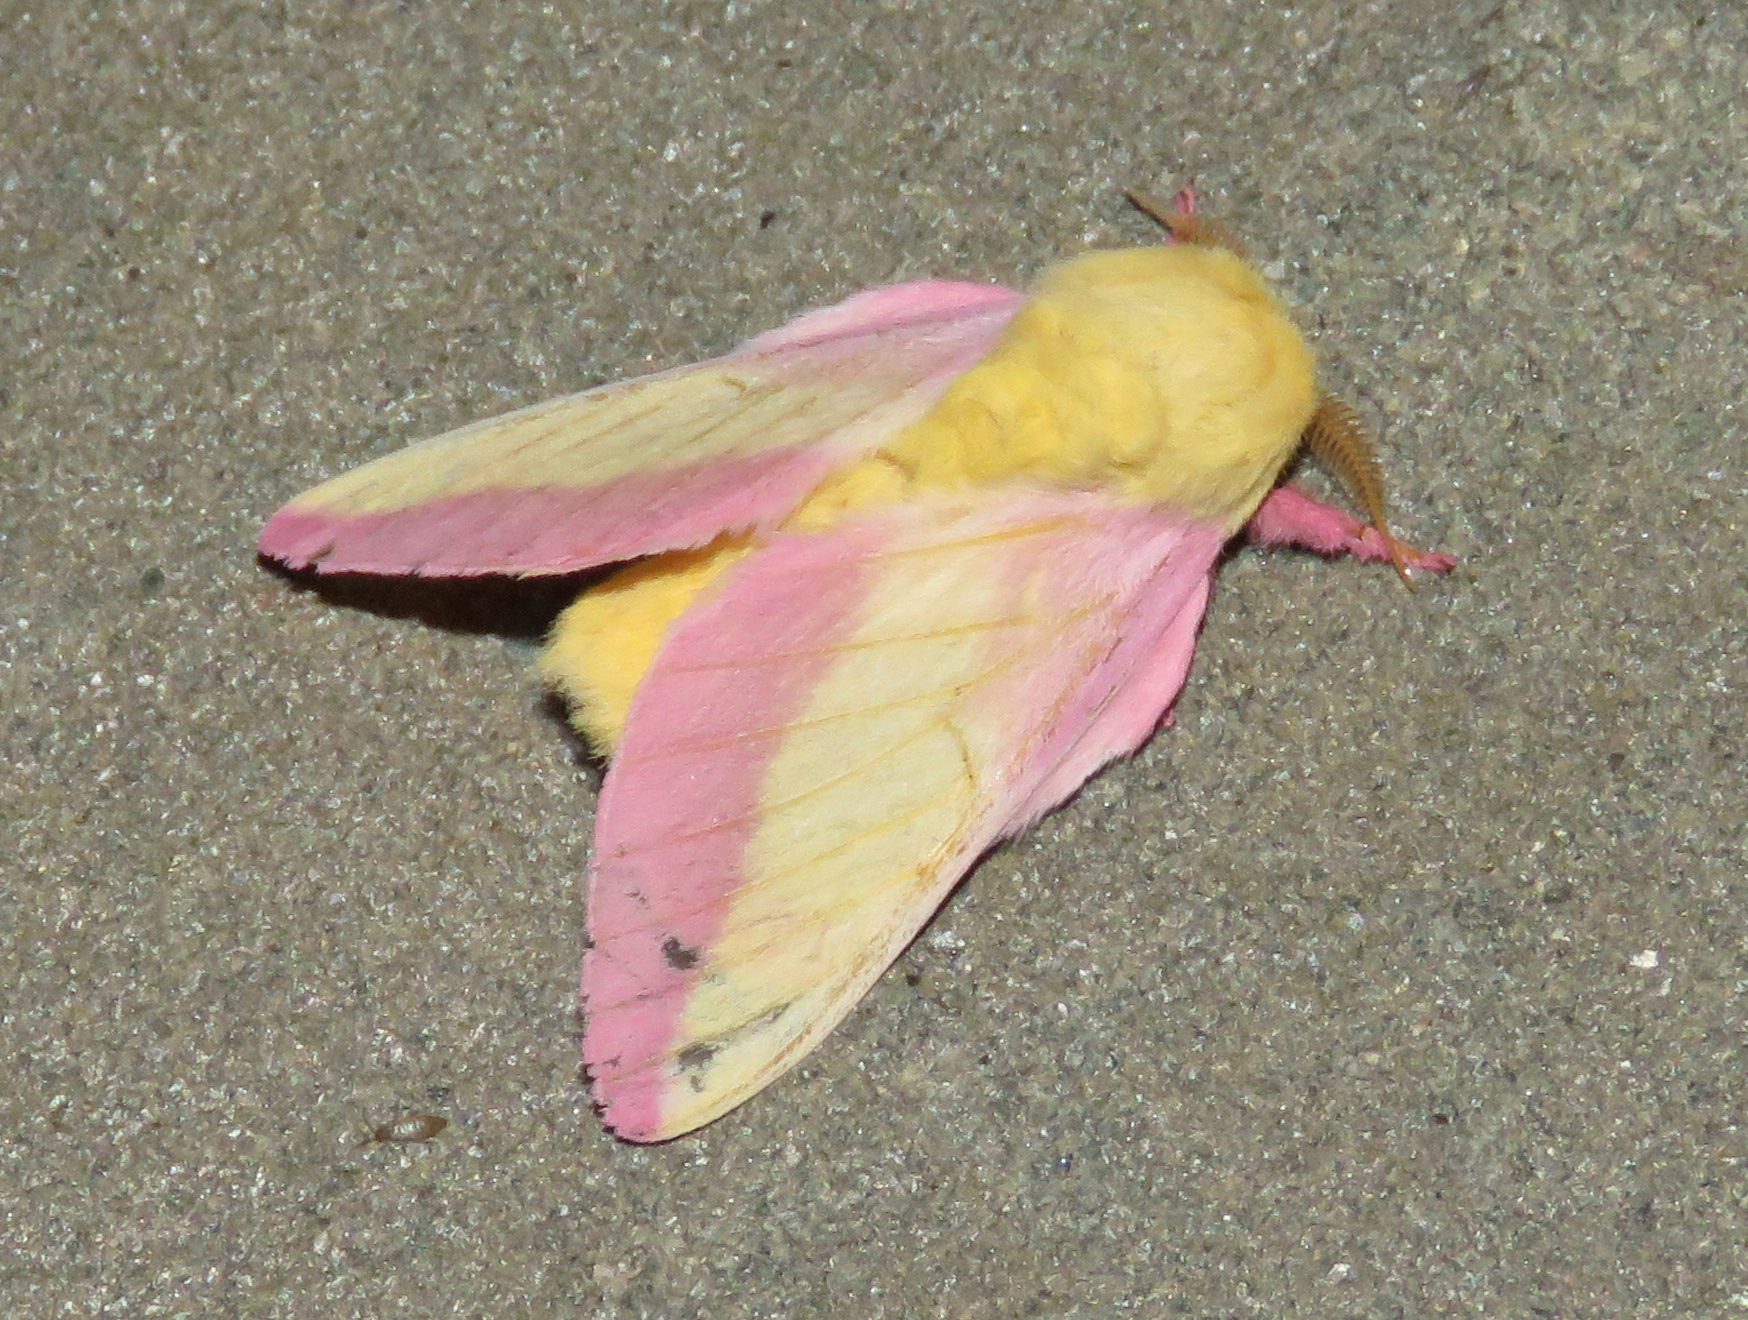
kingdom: Animalia
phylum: Arthropoda
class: Insecta
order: Lepidoptera
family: Saturniidae
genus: Dryocampa
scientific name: Dryocampa rubicunda
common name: Rosy maple moth
